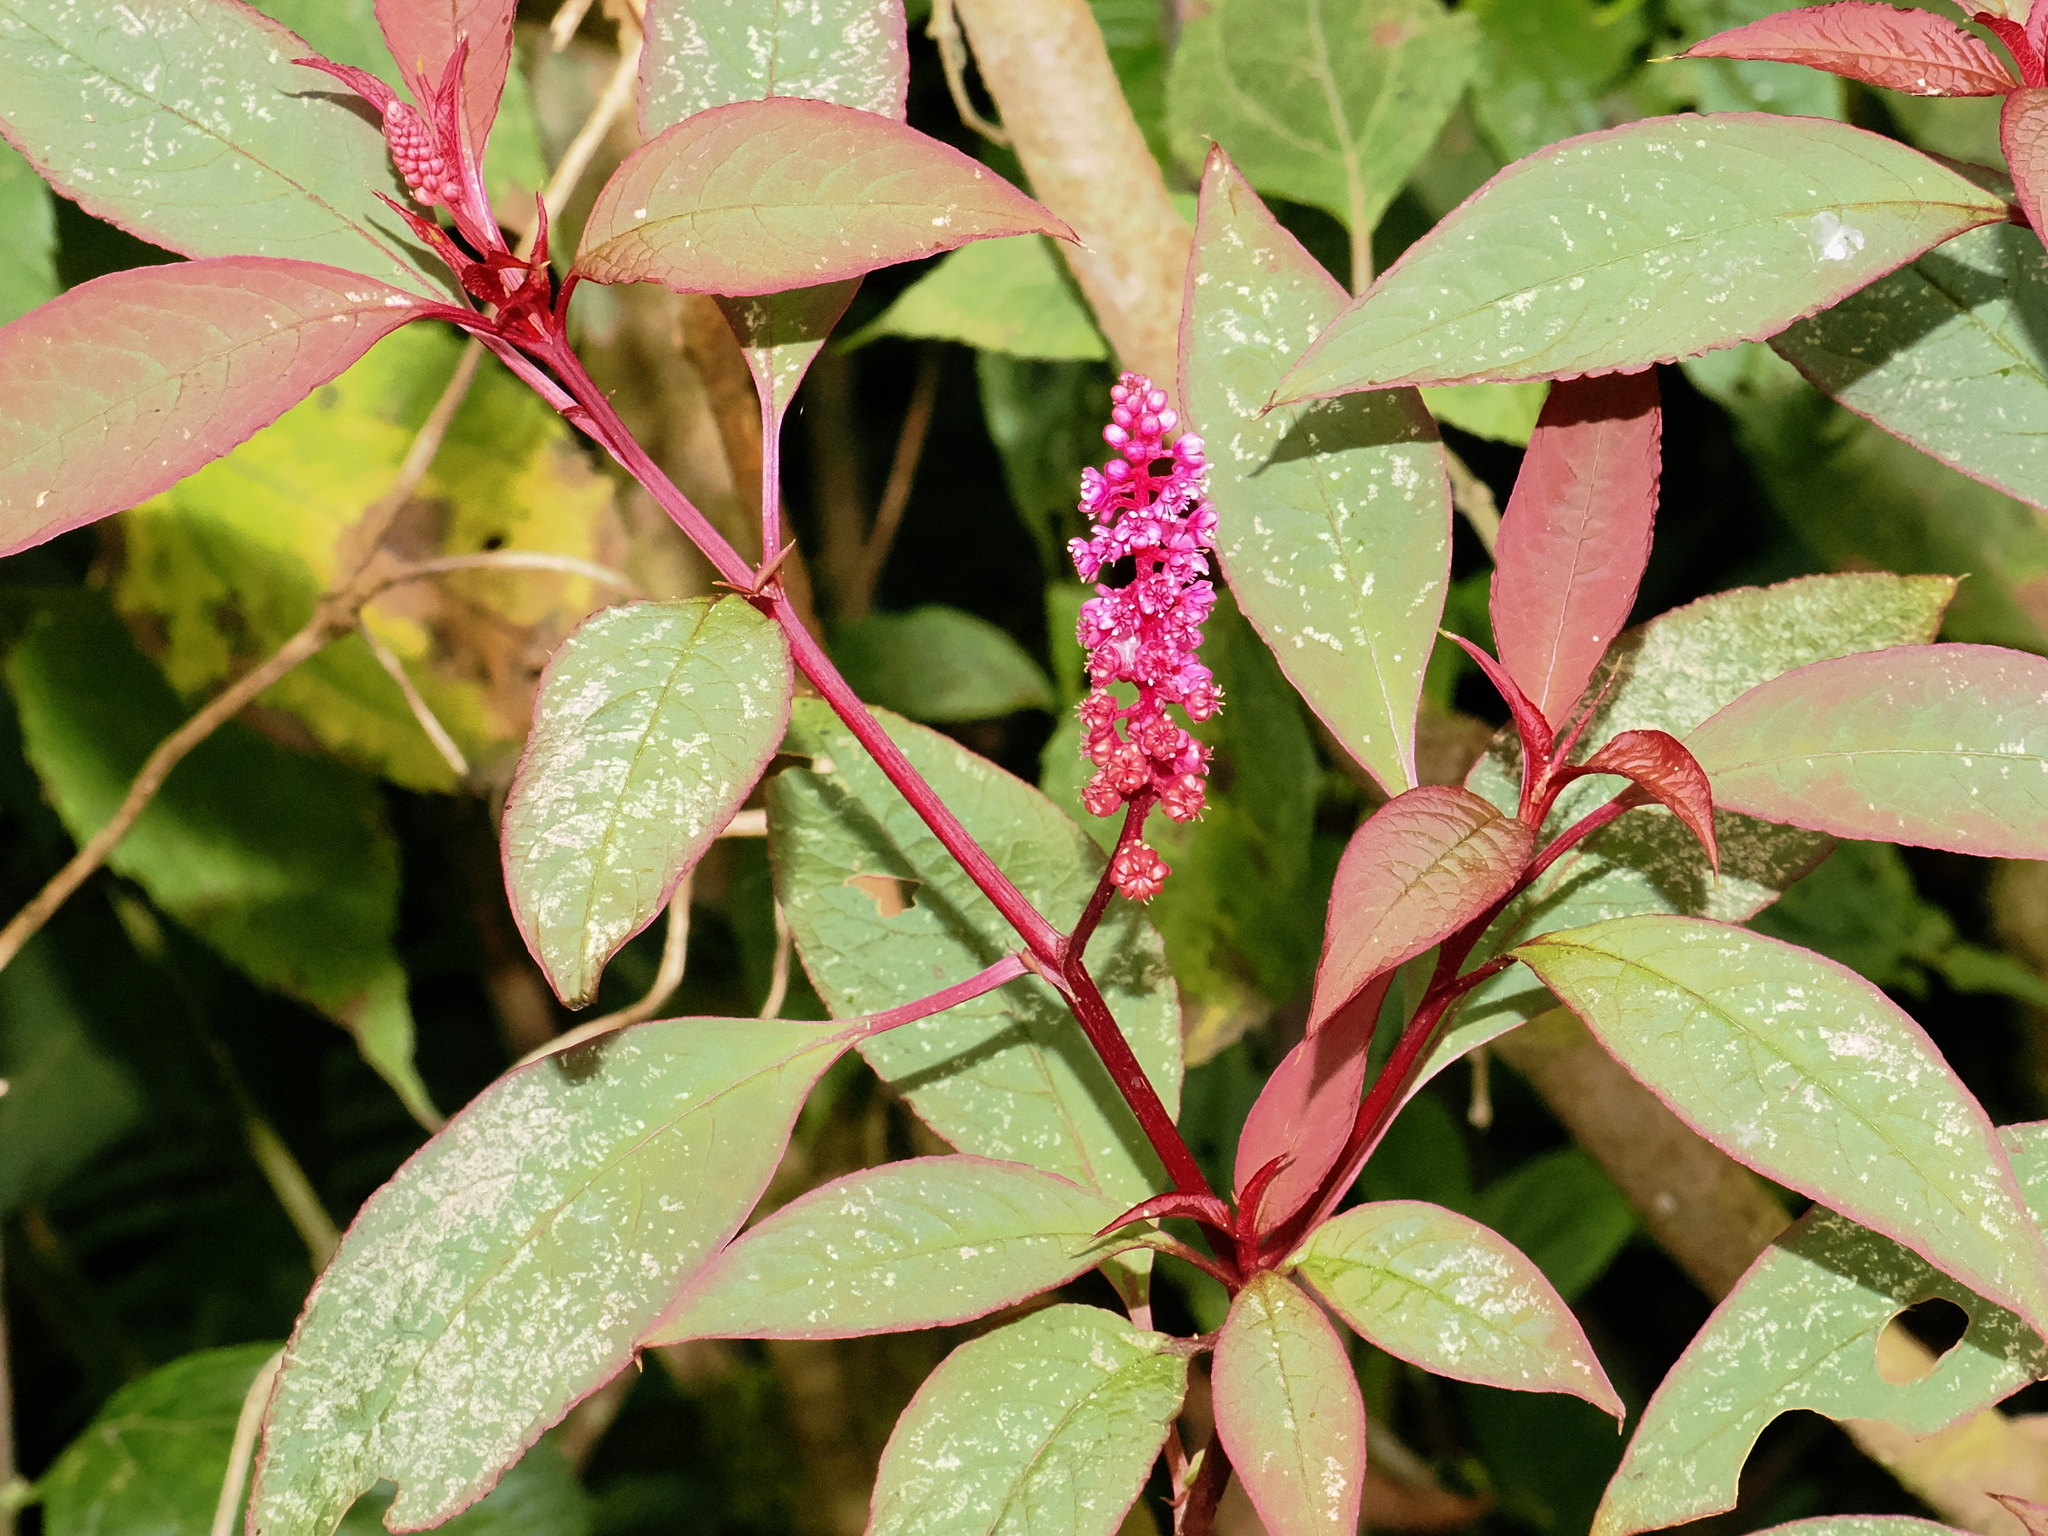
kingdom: Plantae
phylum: Tracheophyta
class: Magnoliopsida
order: Caryophyllales
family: Phytolaccaceae
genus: Phytolacca
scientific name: Phytolacca rugosa
